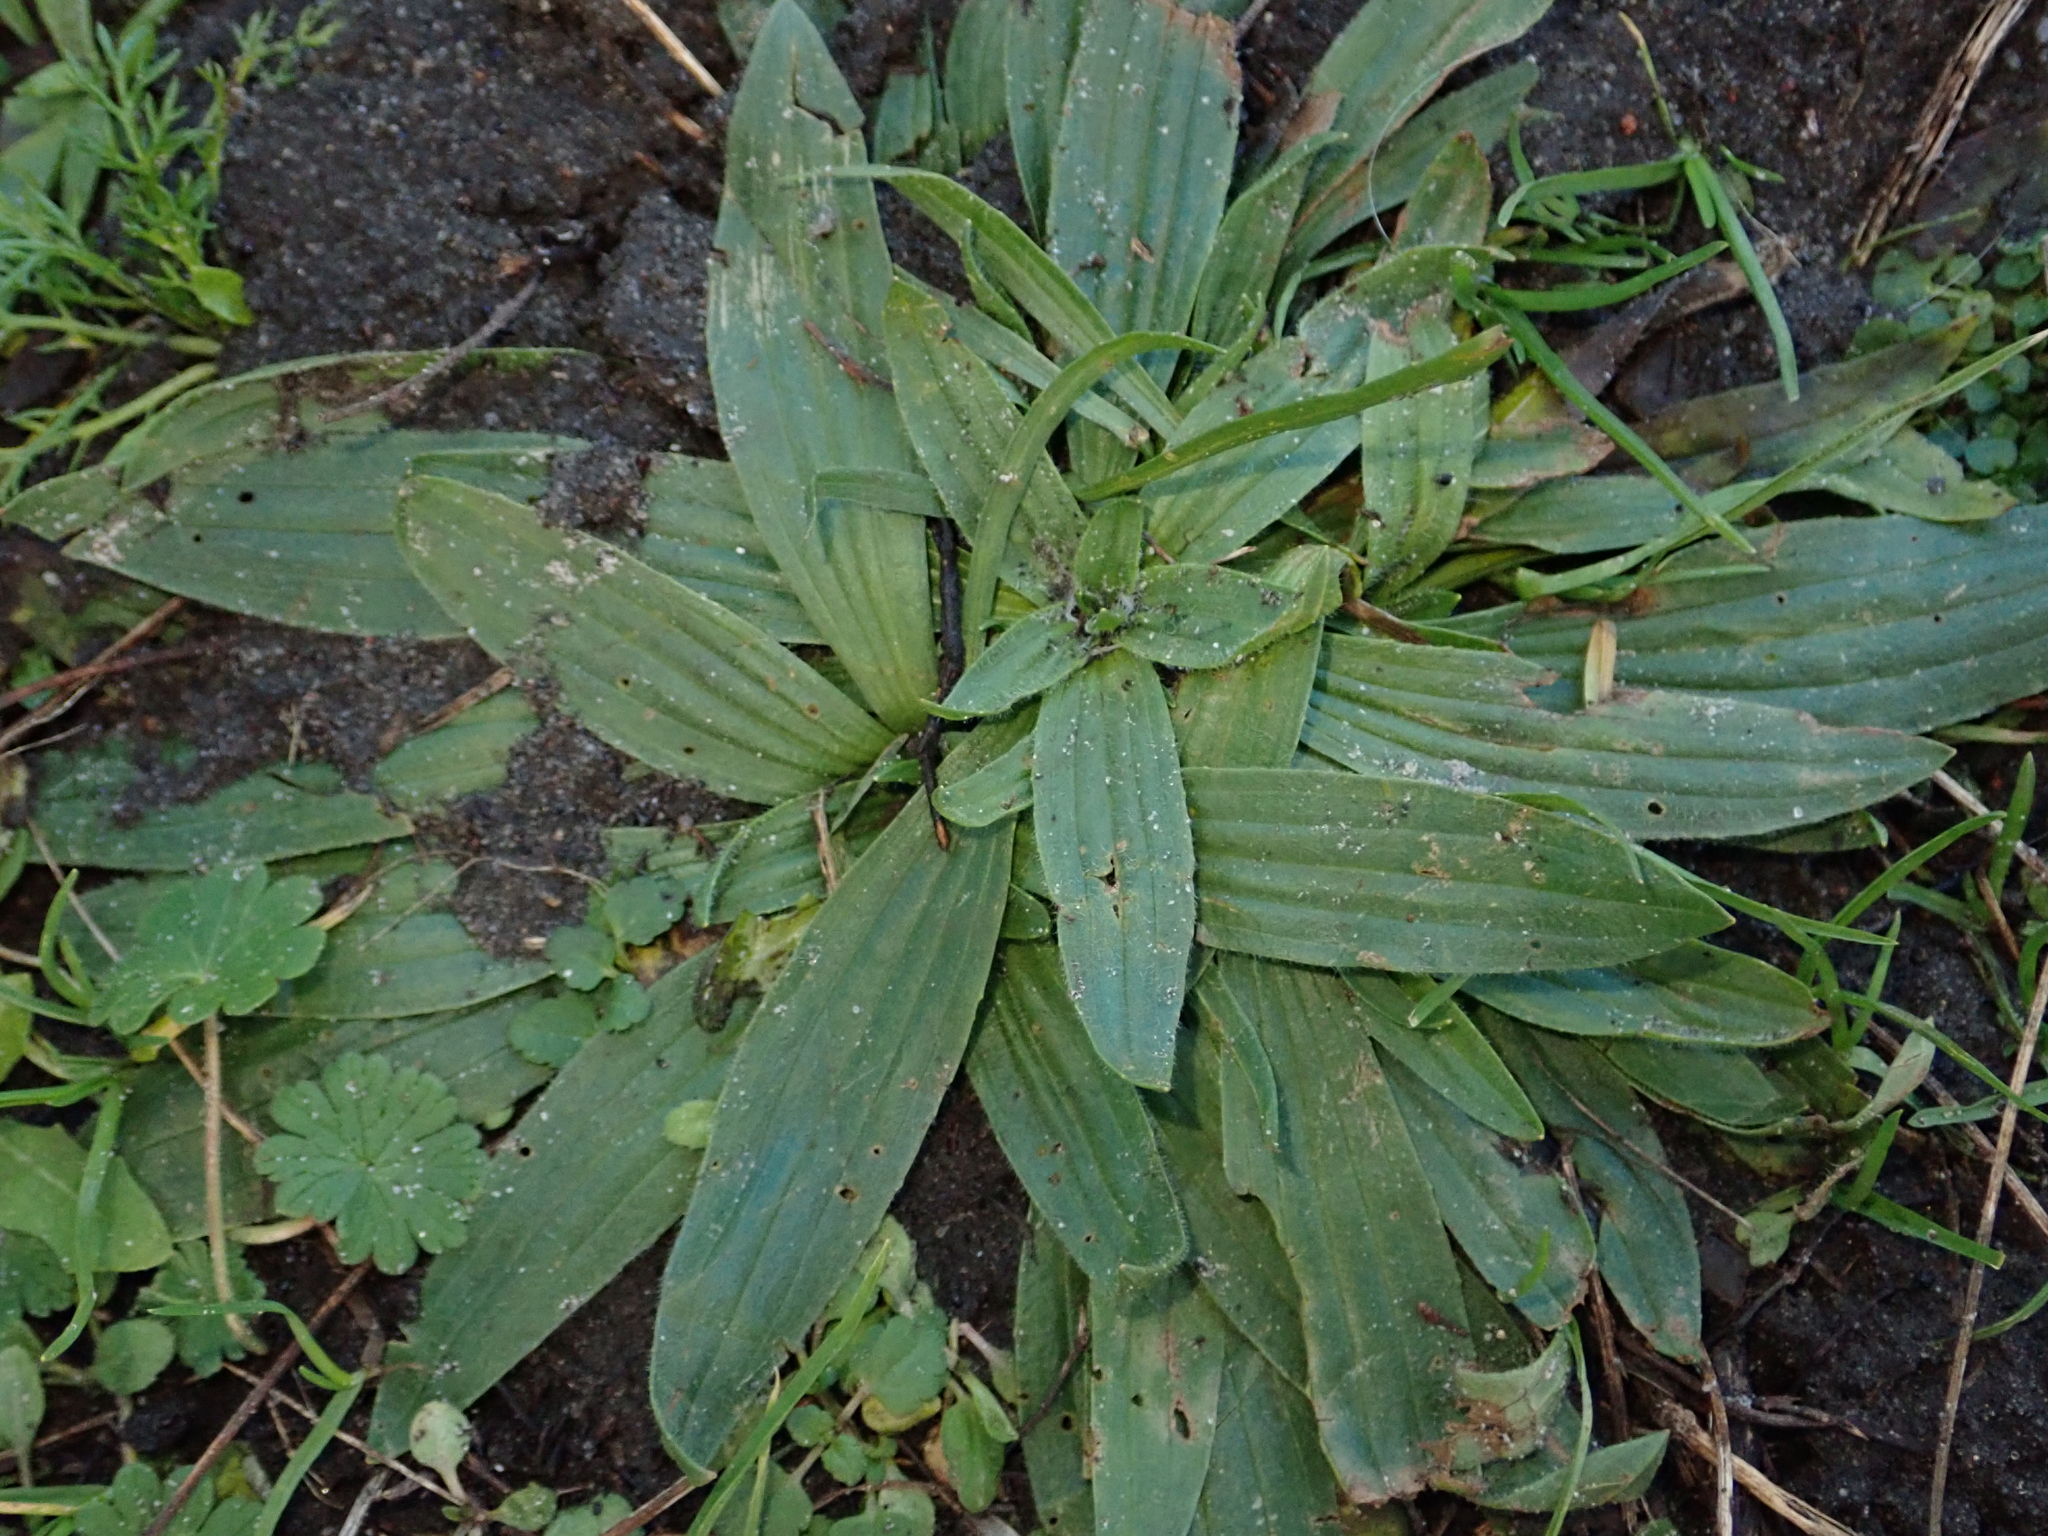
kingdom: Plantae
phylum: Tracheophyta
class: Magnoliopsida
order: Lamiales
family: Plantaginaceae
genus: Plantago
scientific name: Plantago lanceolata
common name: Ribwort plantain
